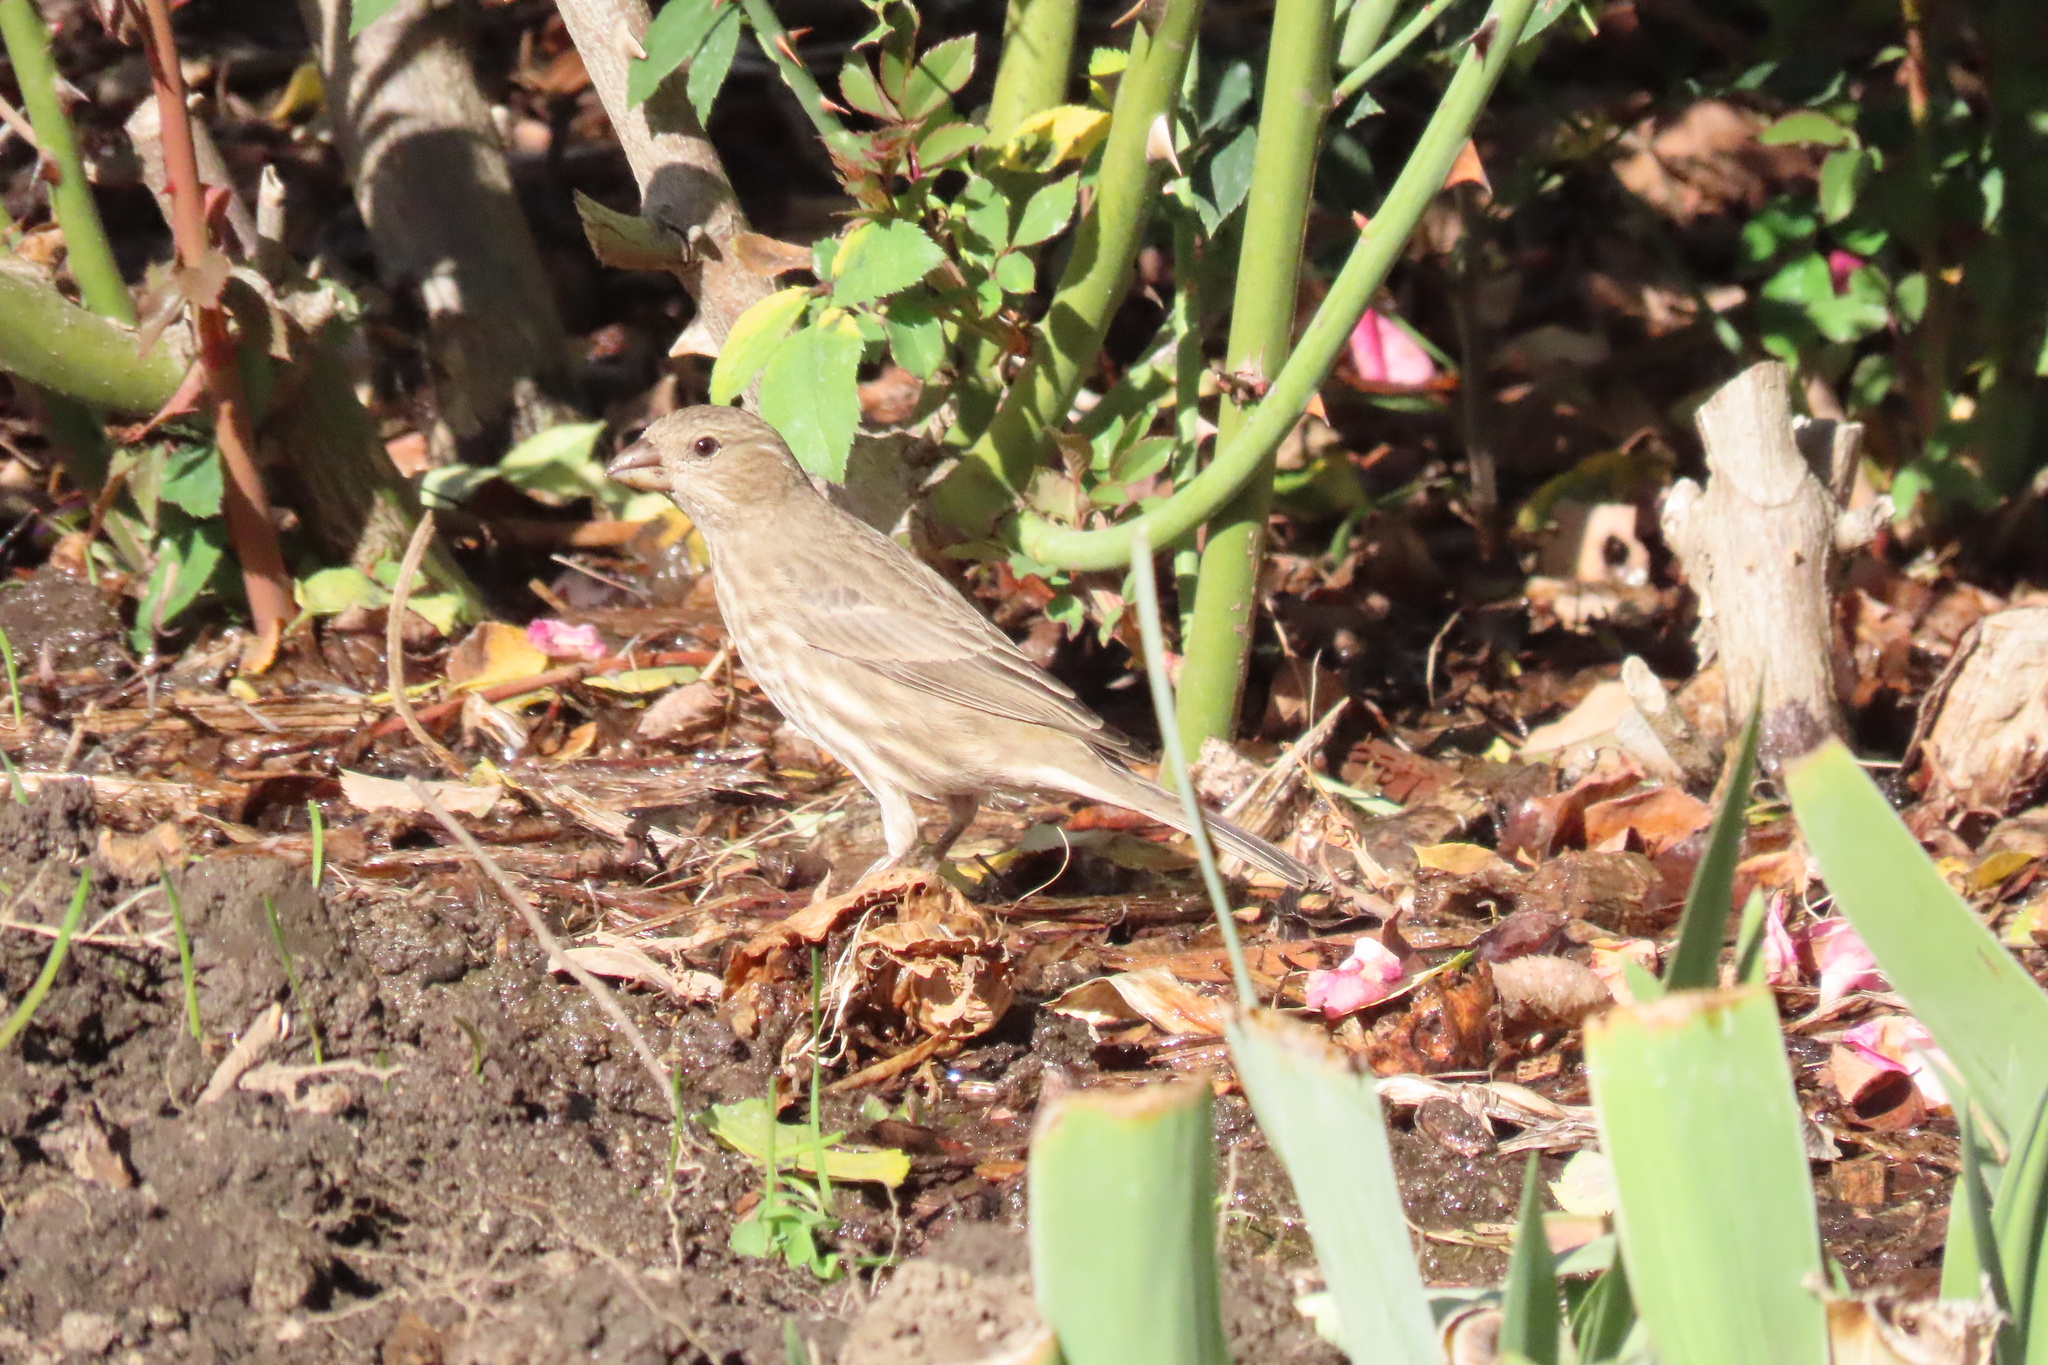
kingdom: Animalia
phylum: Chordata
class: Aves
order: Passeriformes
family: Fringillidae
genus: Haemorhous
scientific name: Haemorhous mexicanus
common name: House finch
